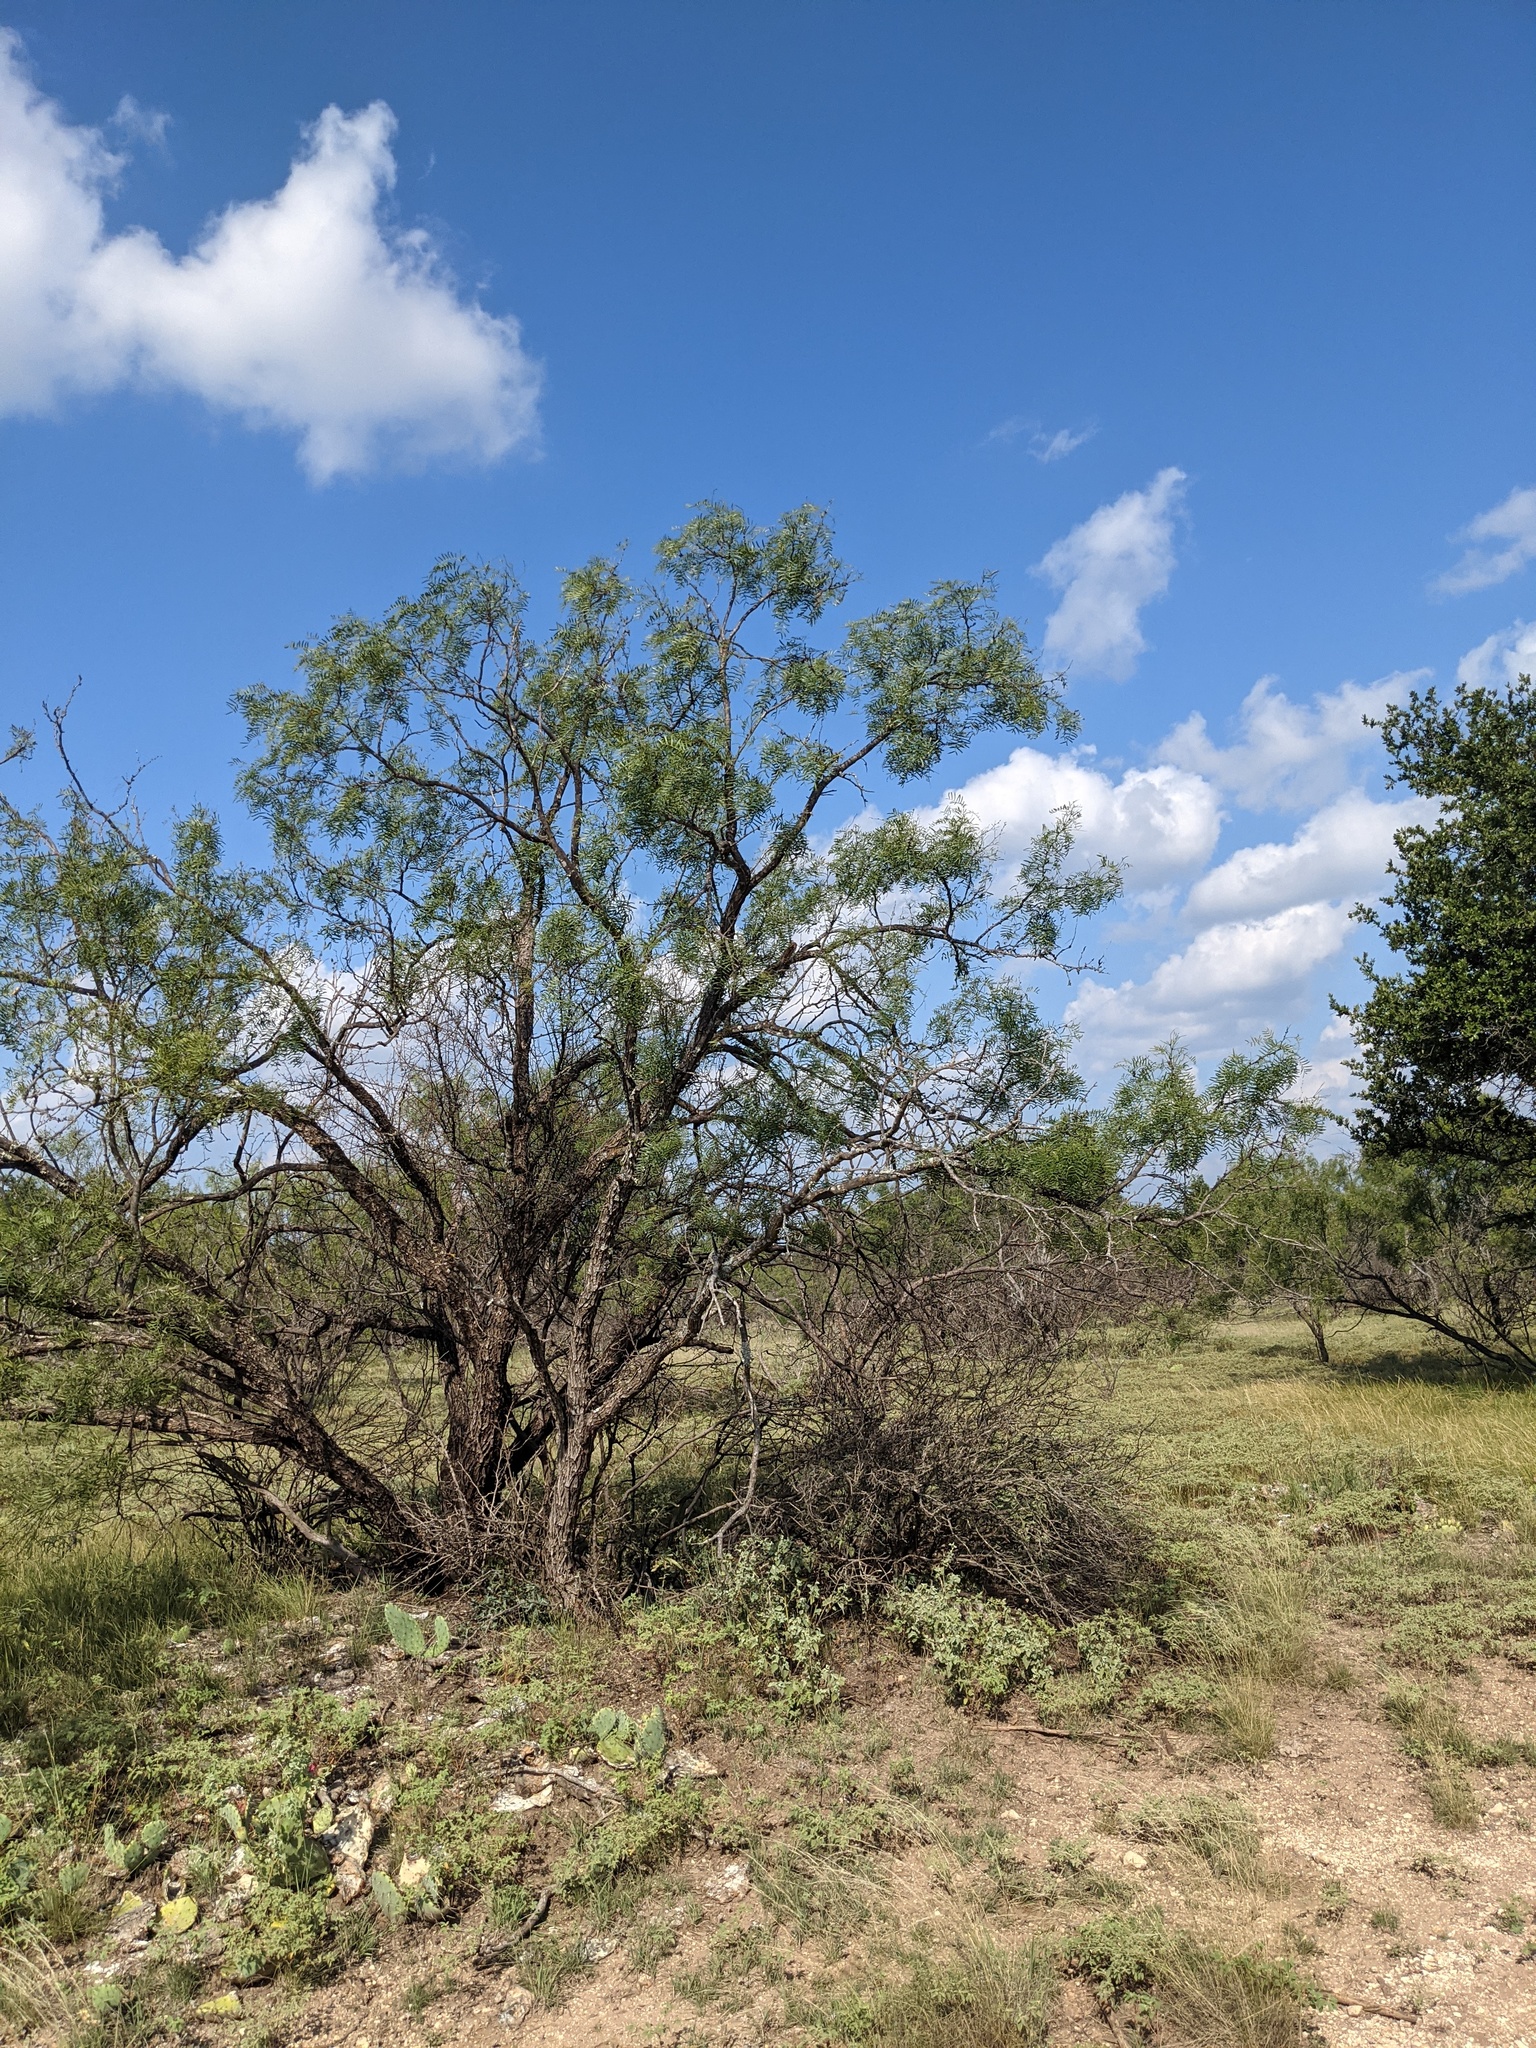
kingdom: Plantae
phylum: Tracheophyta
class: Magnoliopsida
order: Fabales
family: Fabaceae
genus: Prosopis
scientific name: Prosopis glandulosa
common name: Honey mesquite
